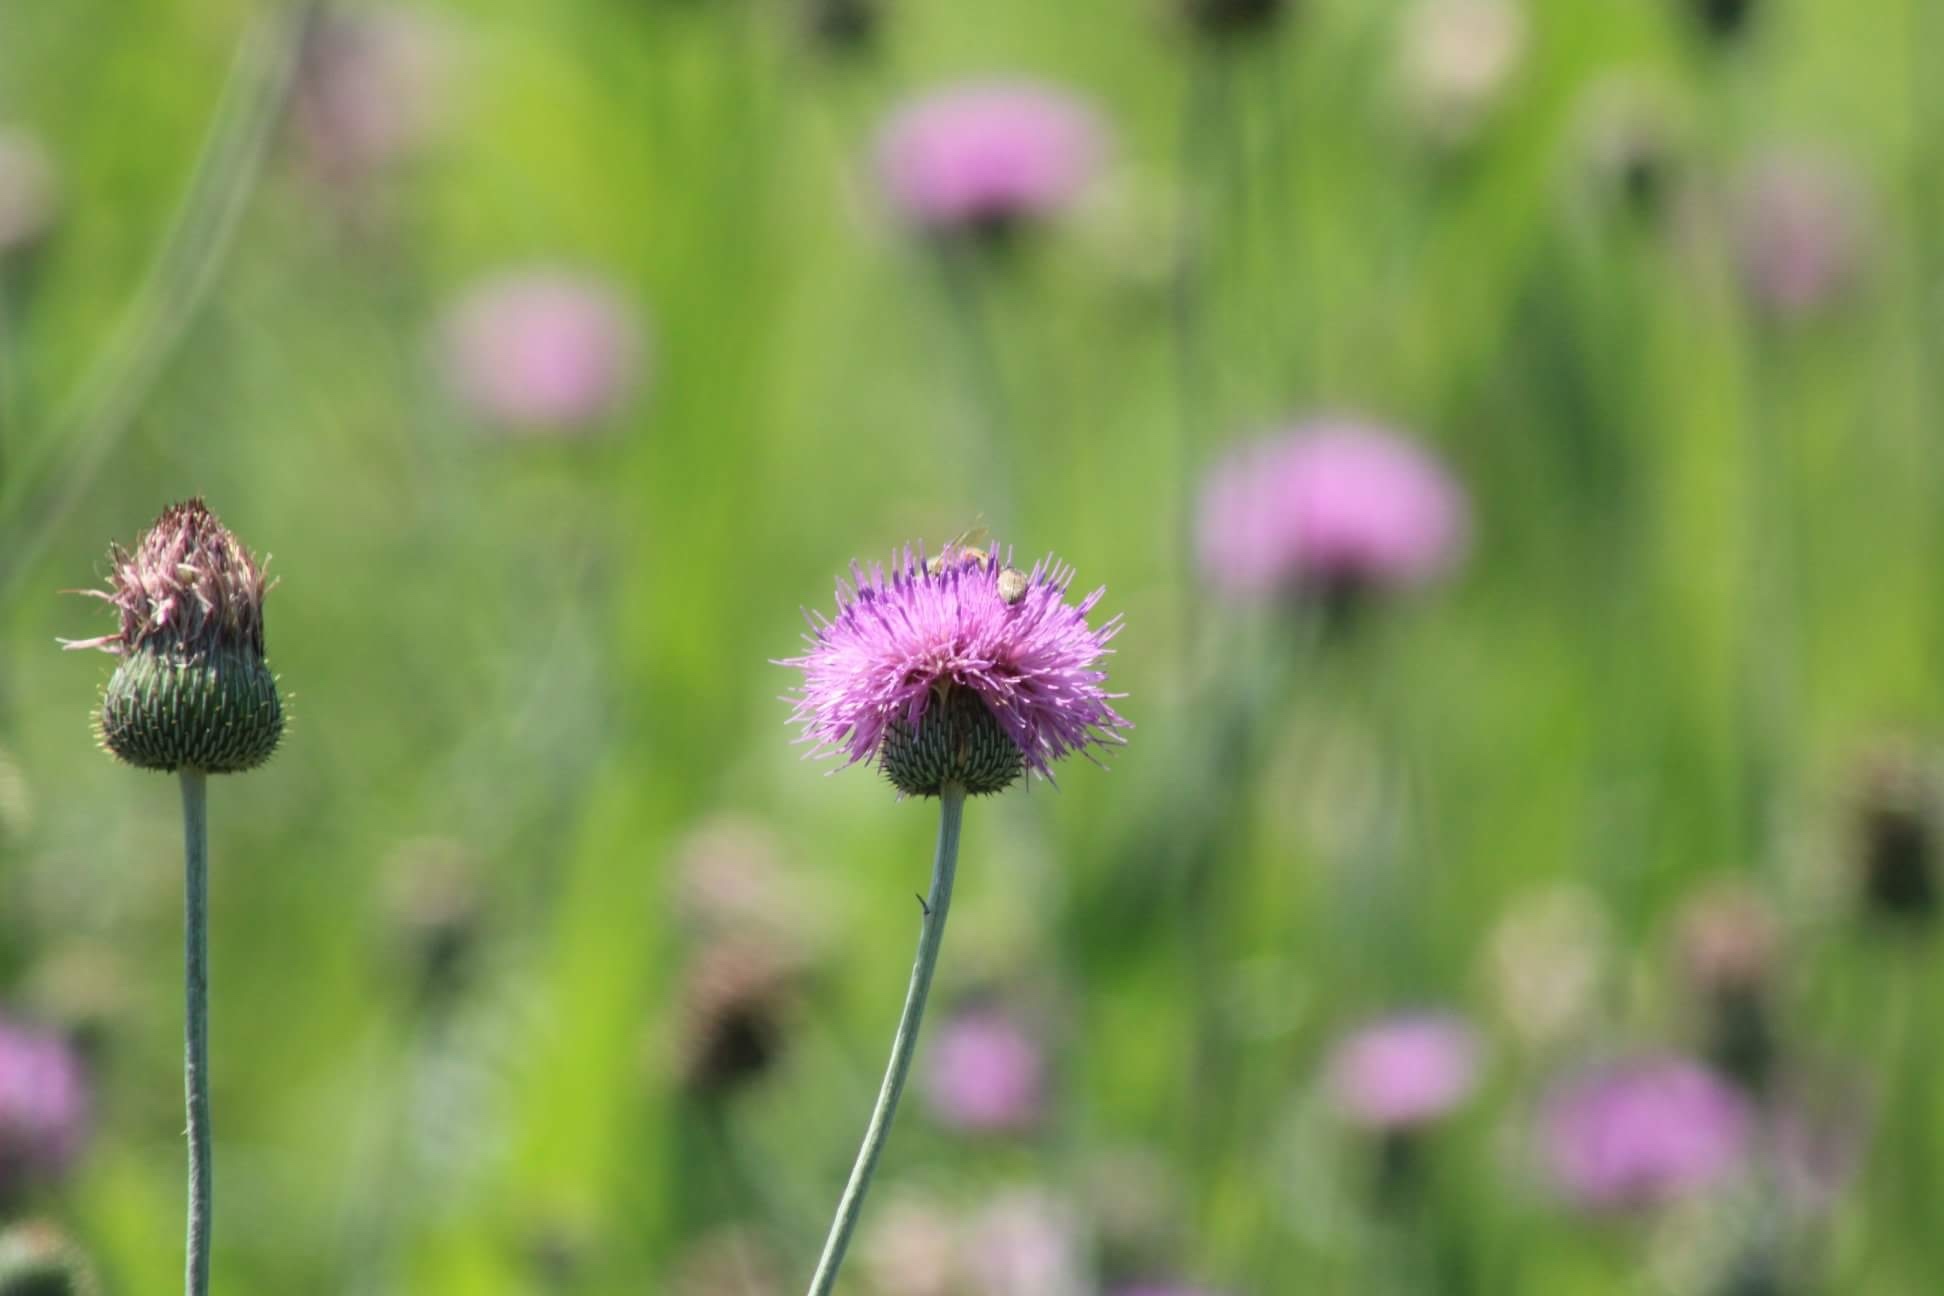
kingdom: Plantae
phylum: Tracheophyta
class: Magnoliopsida
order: Asterales
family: Asteraceae
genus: Cirsium
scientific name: Cirsium texanum
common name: Texas purple thistle
